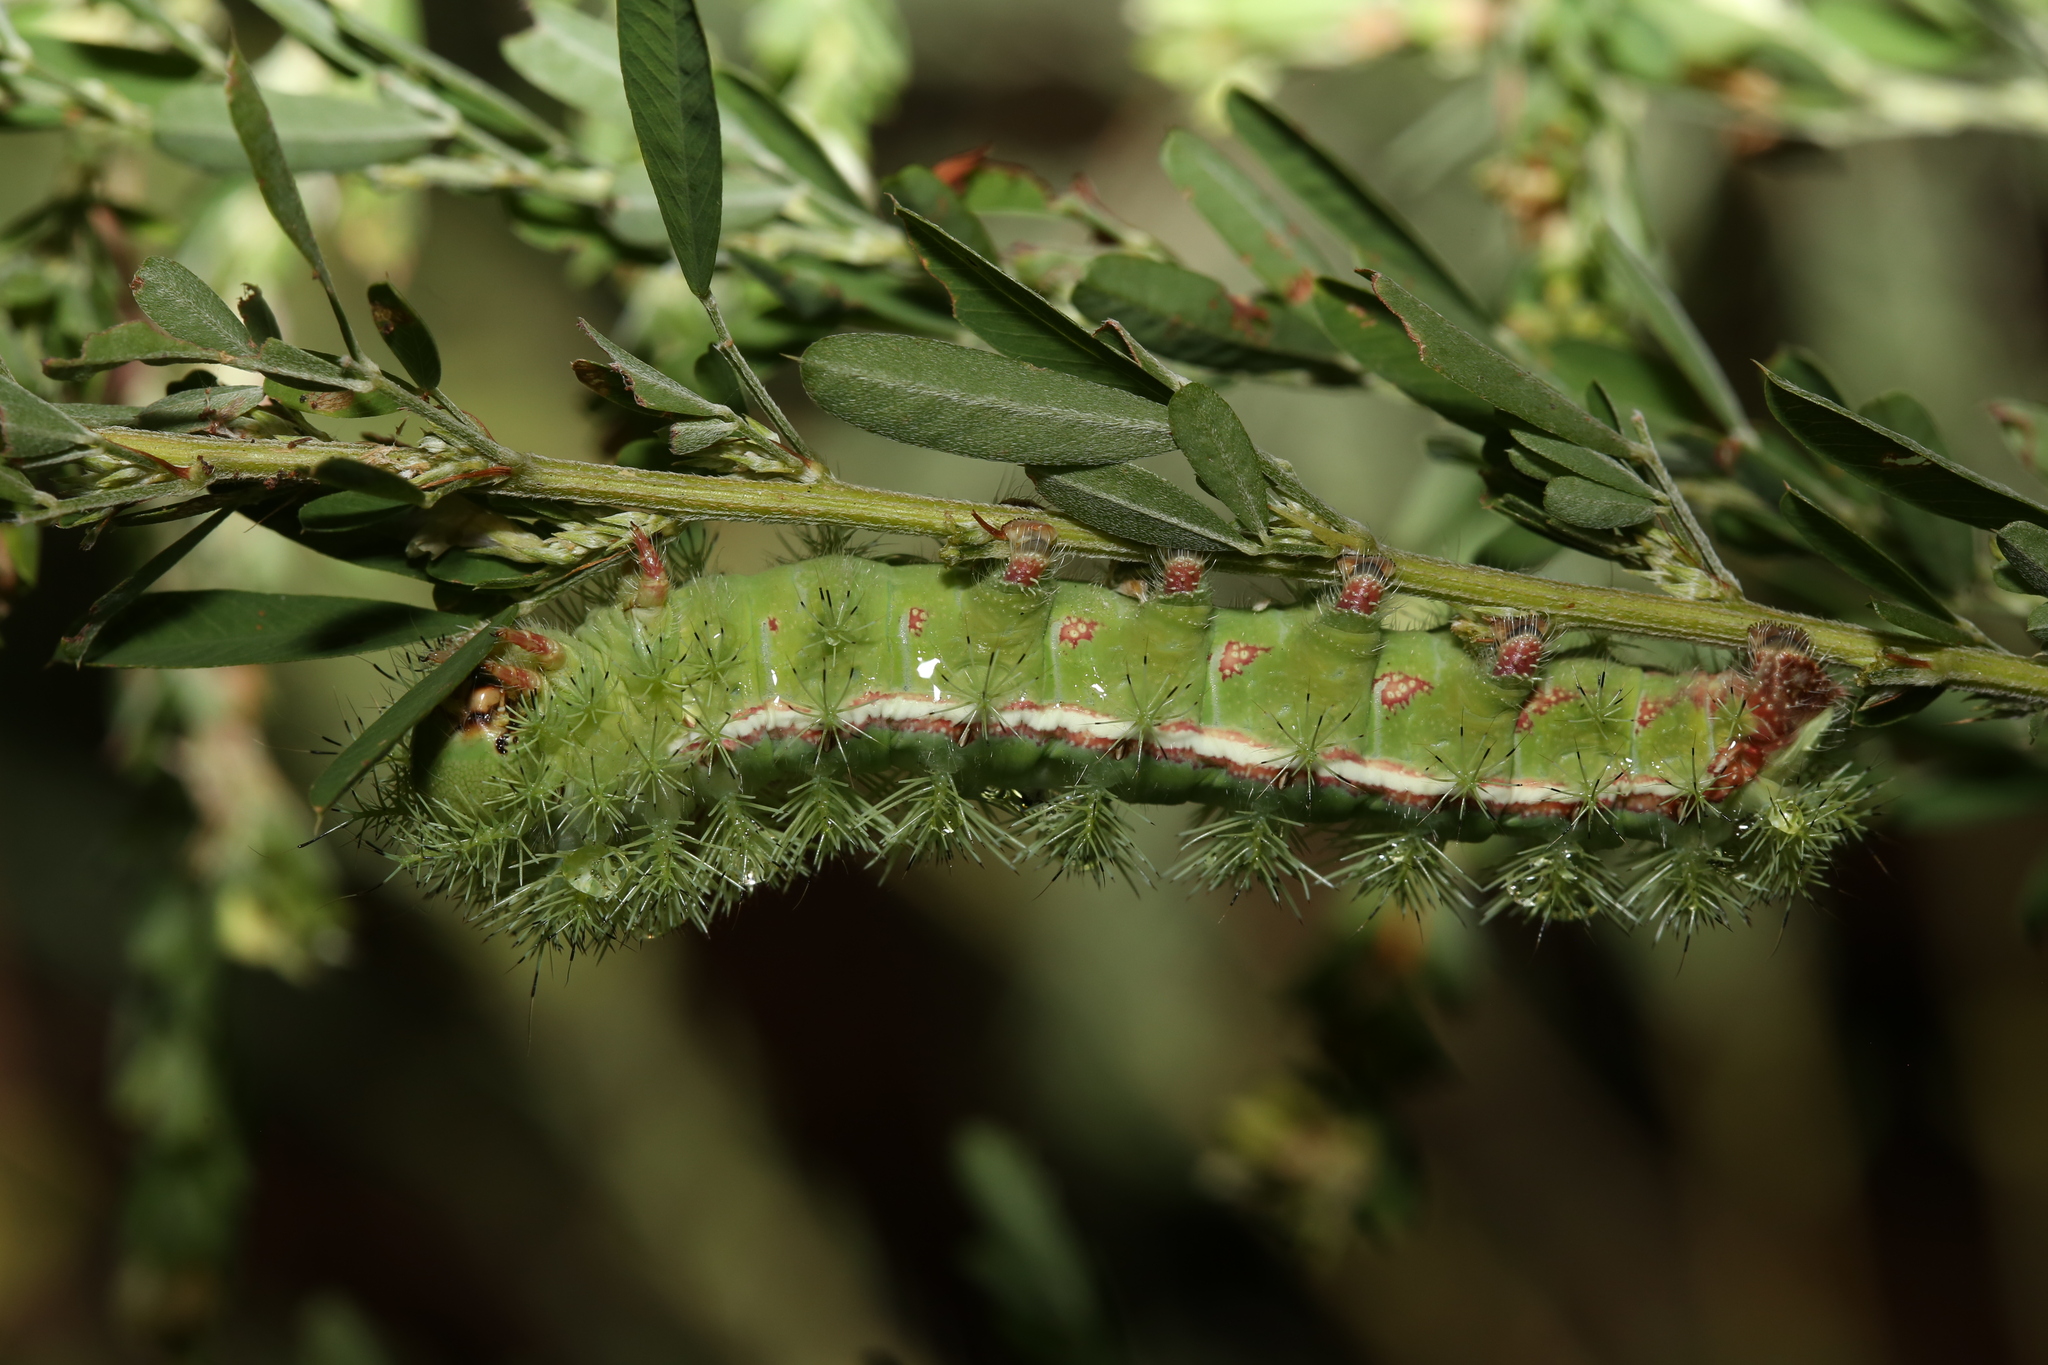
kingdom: Animalia
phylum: Arthropoda
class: Insecta
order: Lepidoptera
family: Saturniidae
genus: Automeris
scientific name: Automeris io
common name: Io moth
